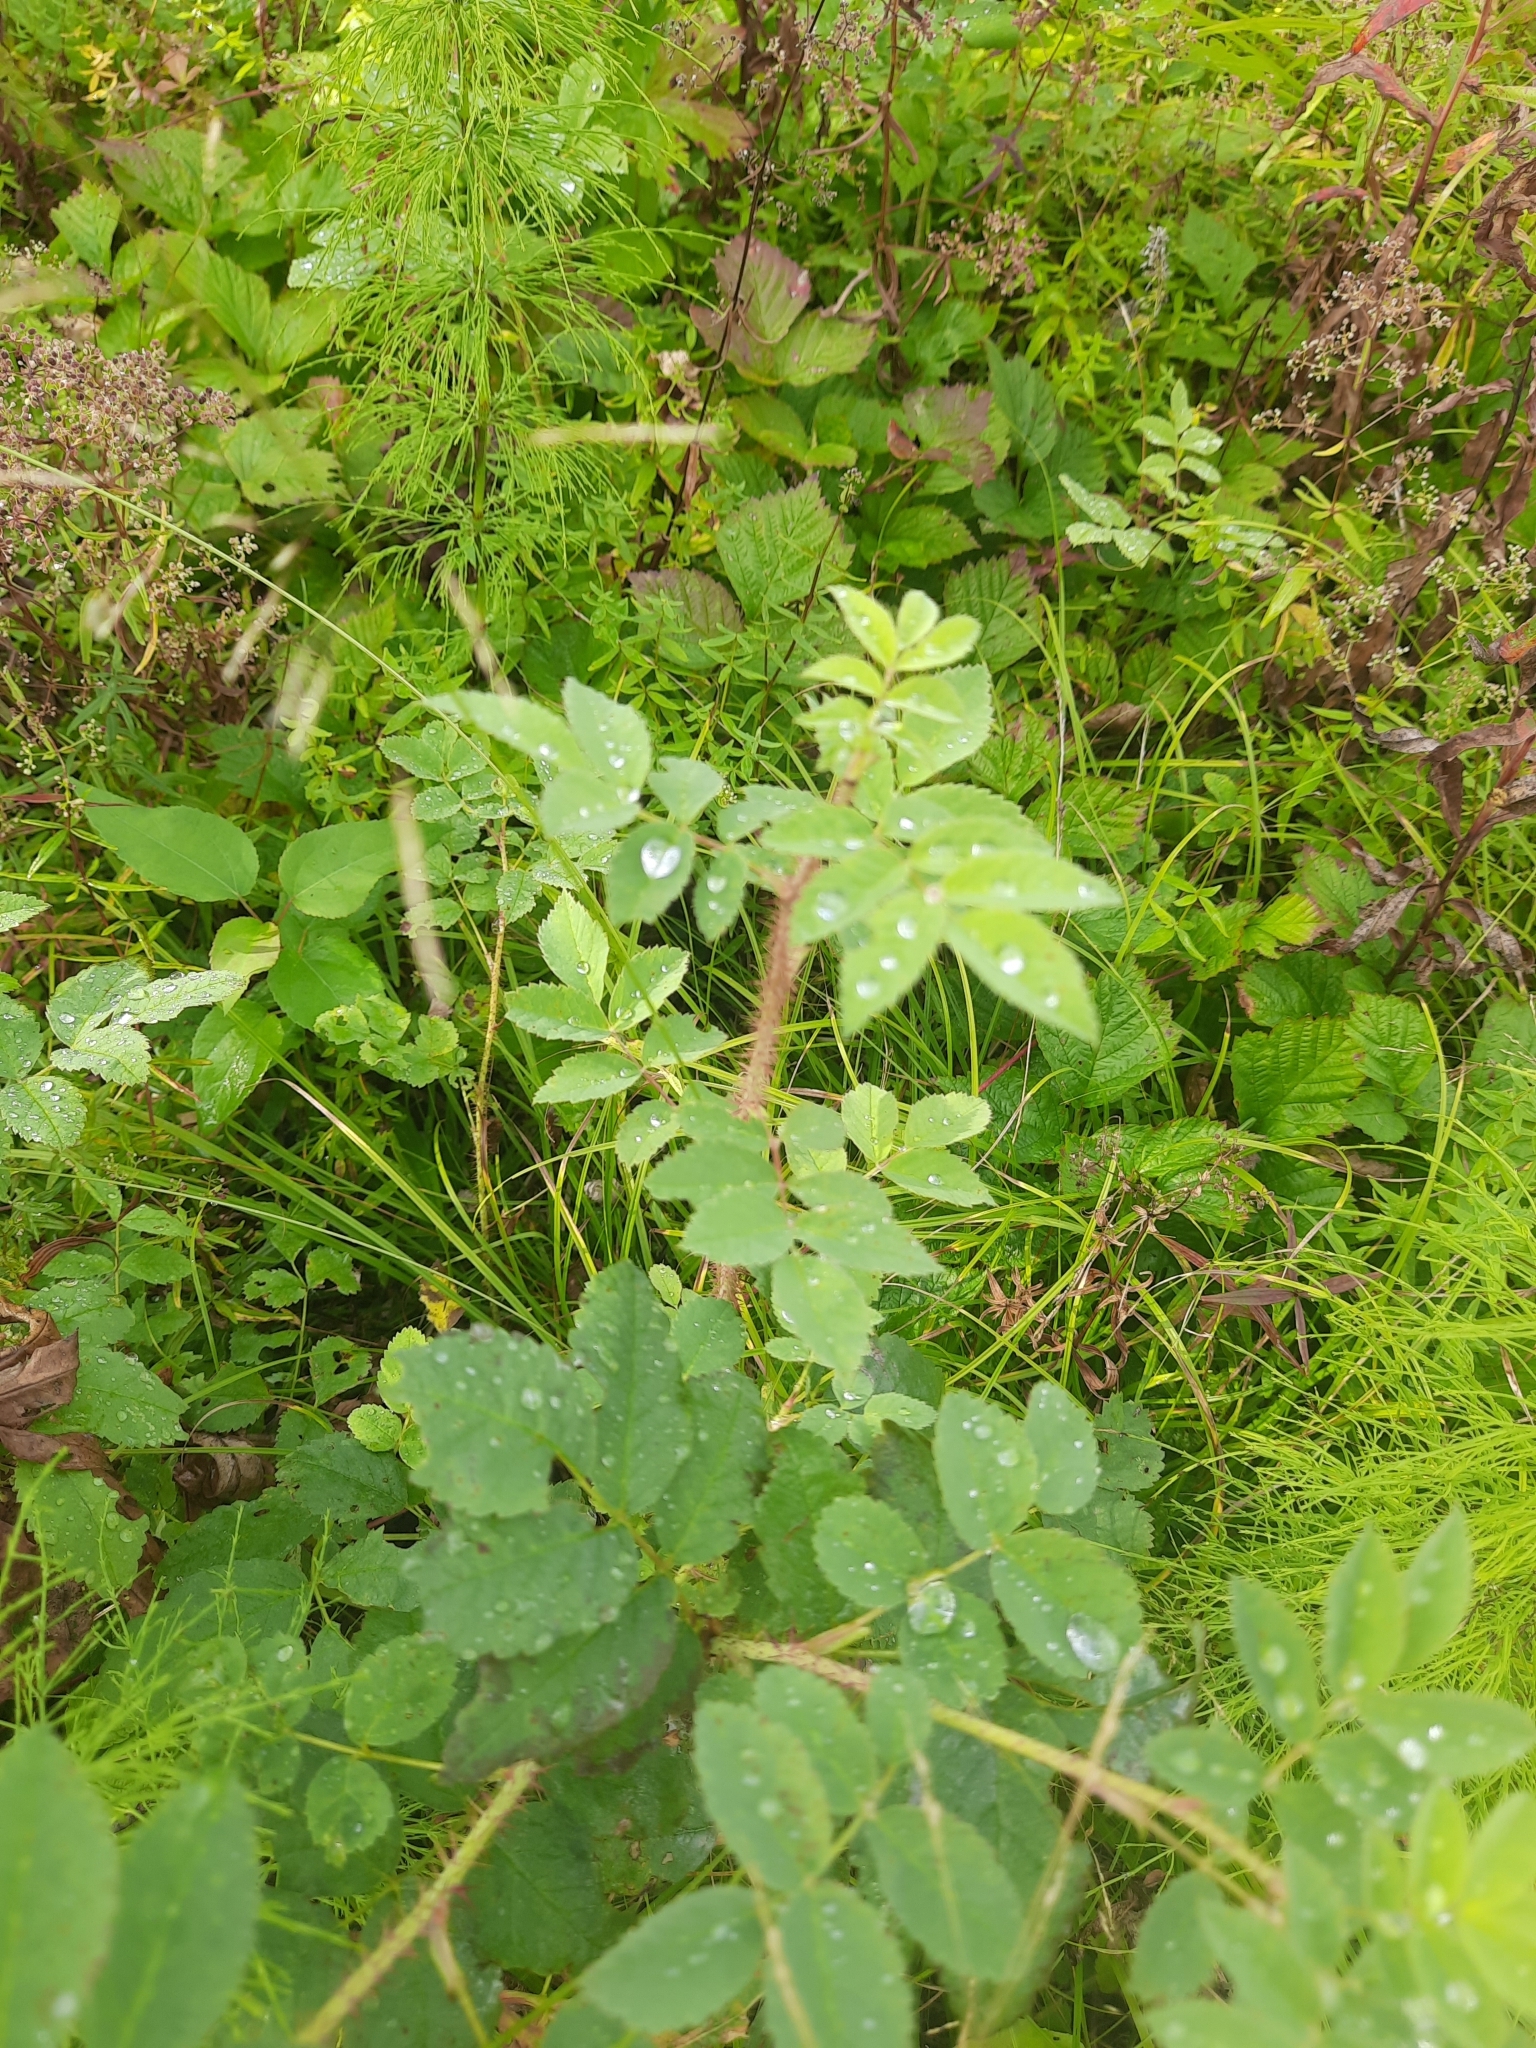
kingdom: Plantae
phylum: Tracheophyta
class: Magnoliopsida
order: Rosales
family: Rosaceae
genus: Rosa
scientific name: Rosa acicularis
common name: Prickly rose
